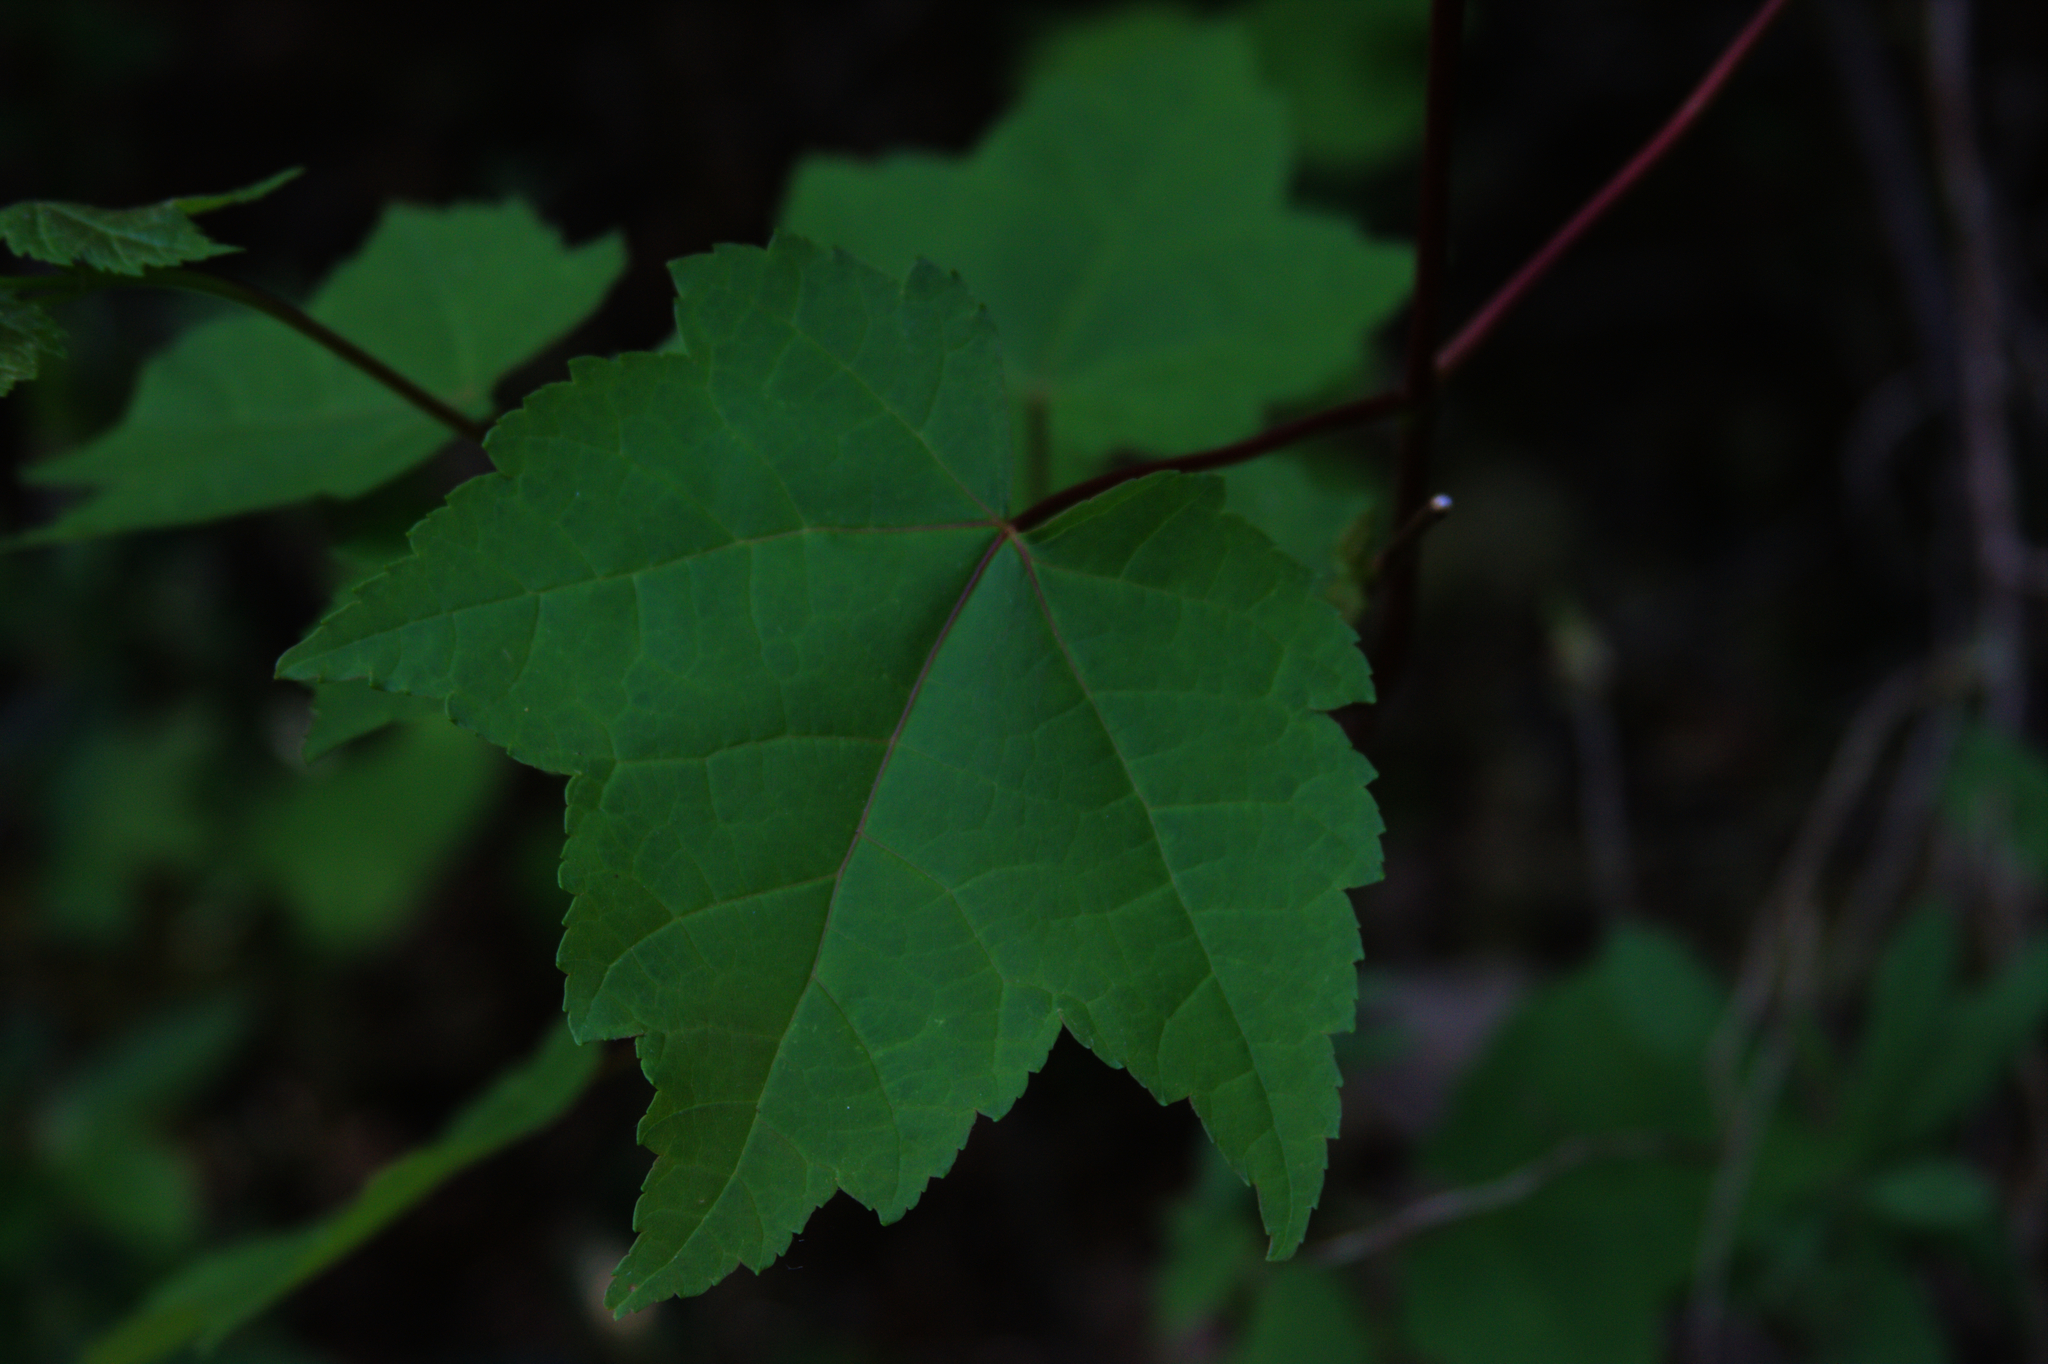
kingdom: Plantae
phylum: Tracheophyta
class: Magnoliopsida
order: Sapindales
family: Sapindaceae
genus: Acer
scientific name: Acer rubrum
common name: Red maple
